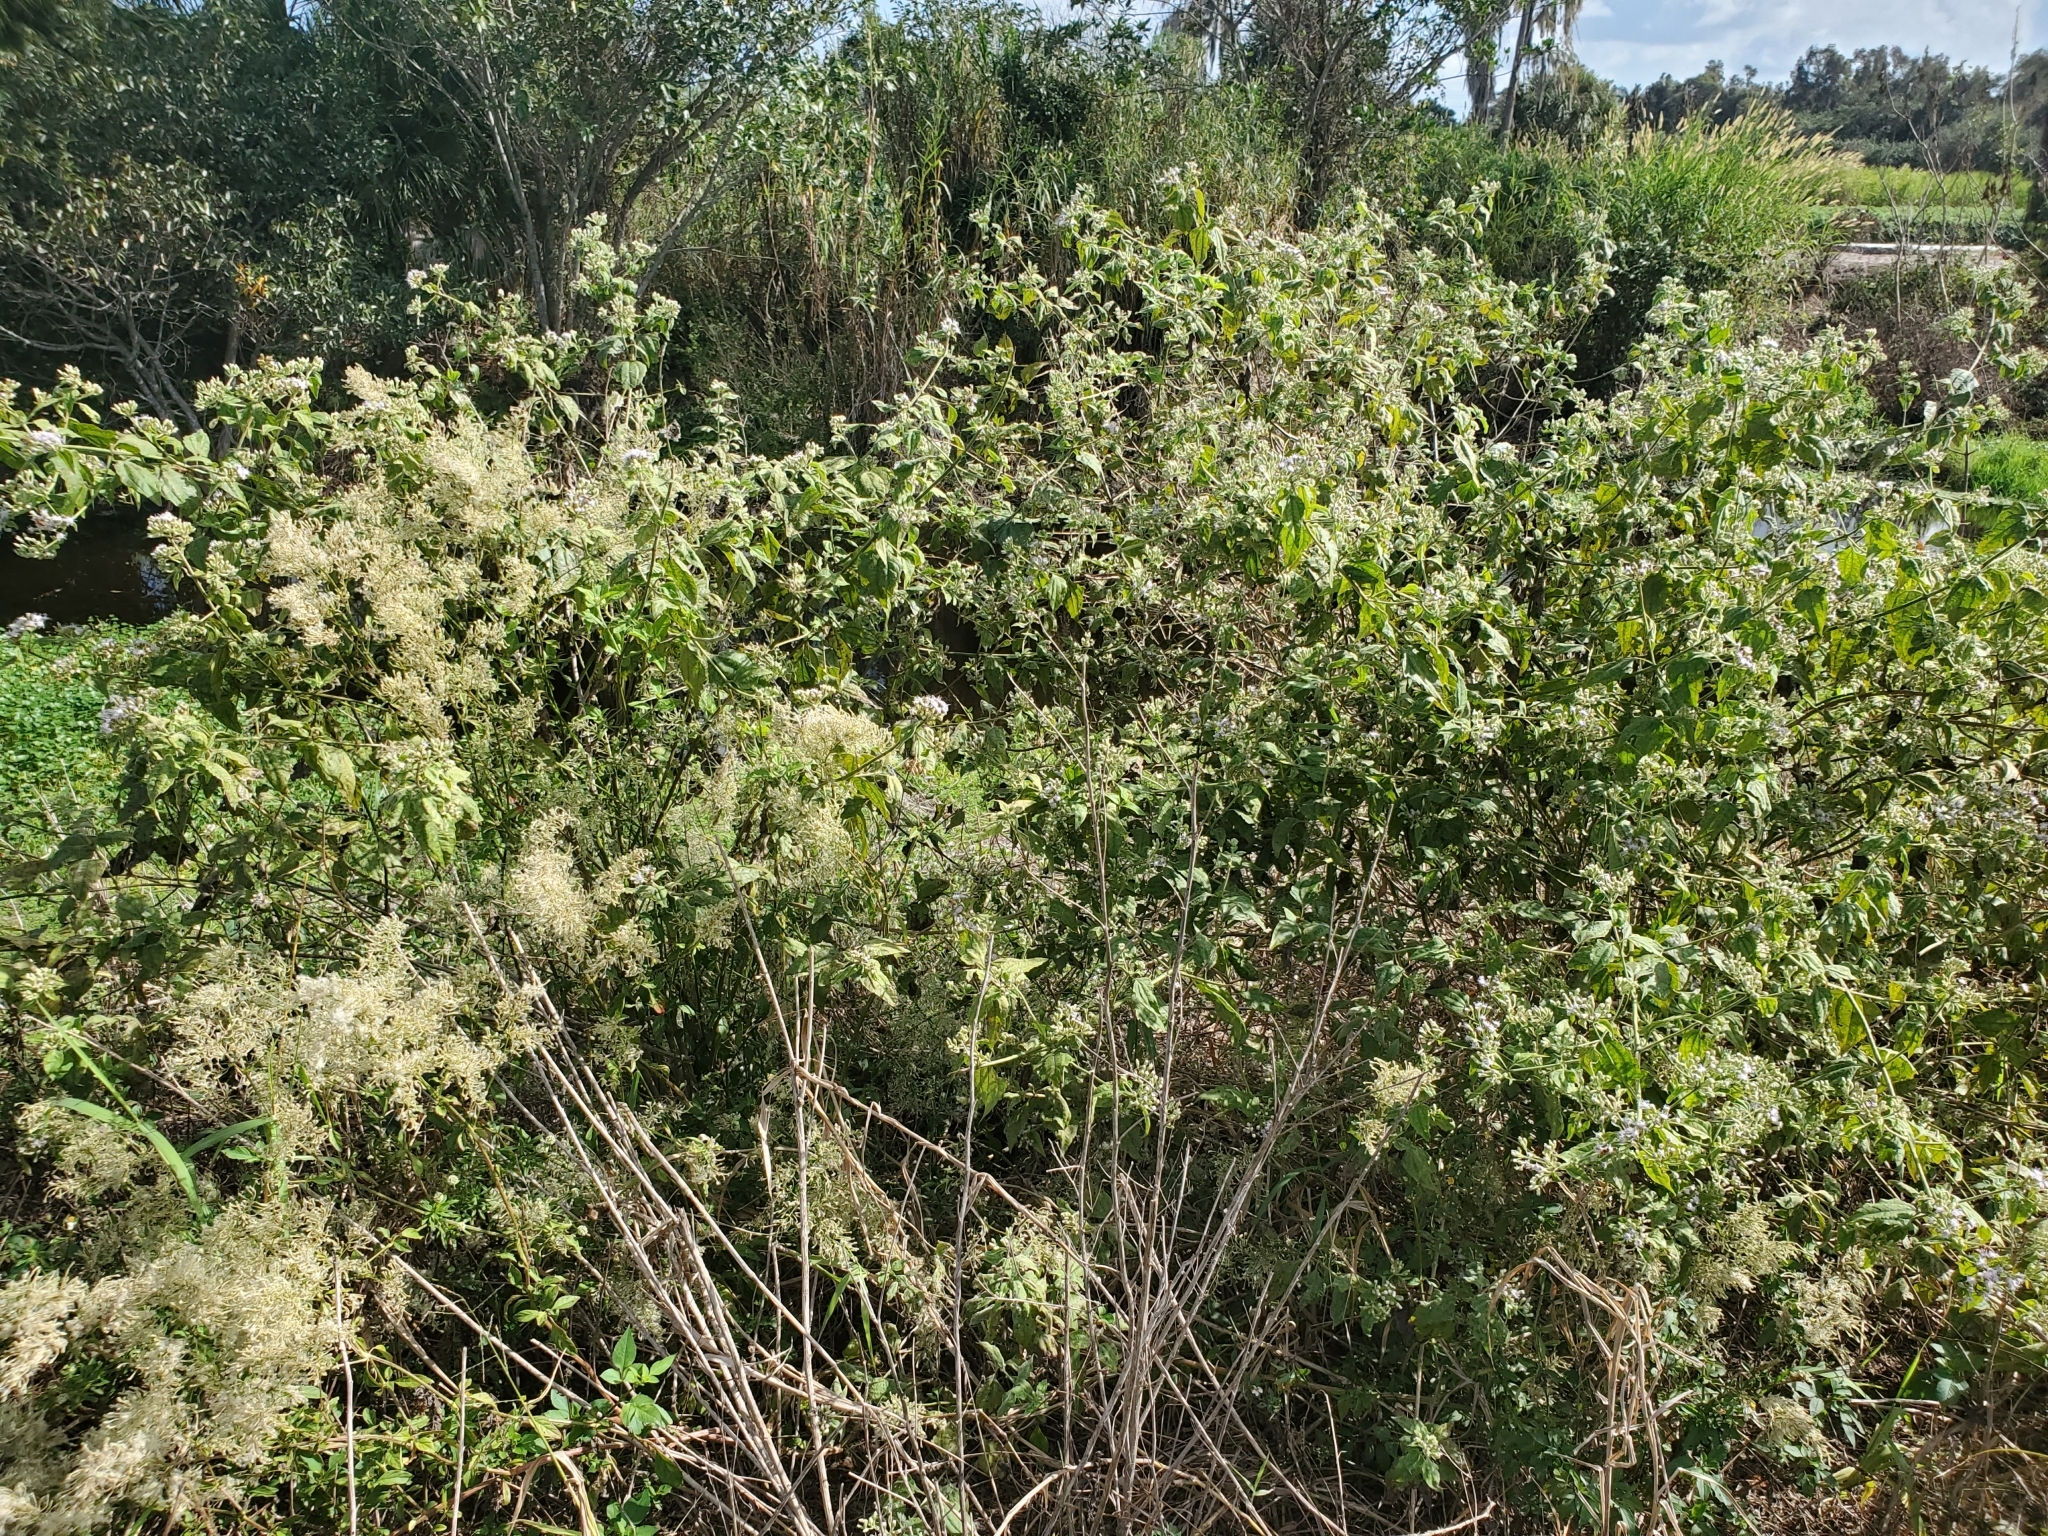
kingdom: Plantae
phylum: Tracheophyta
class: Magnoliopsida
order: Asterales
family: Asteraceae
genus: Chromolaena
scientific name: Chromolaena odorata
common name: Siamweed
